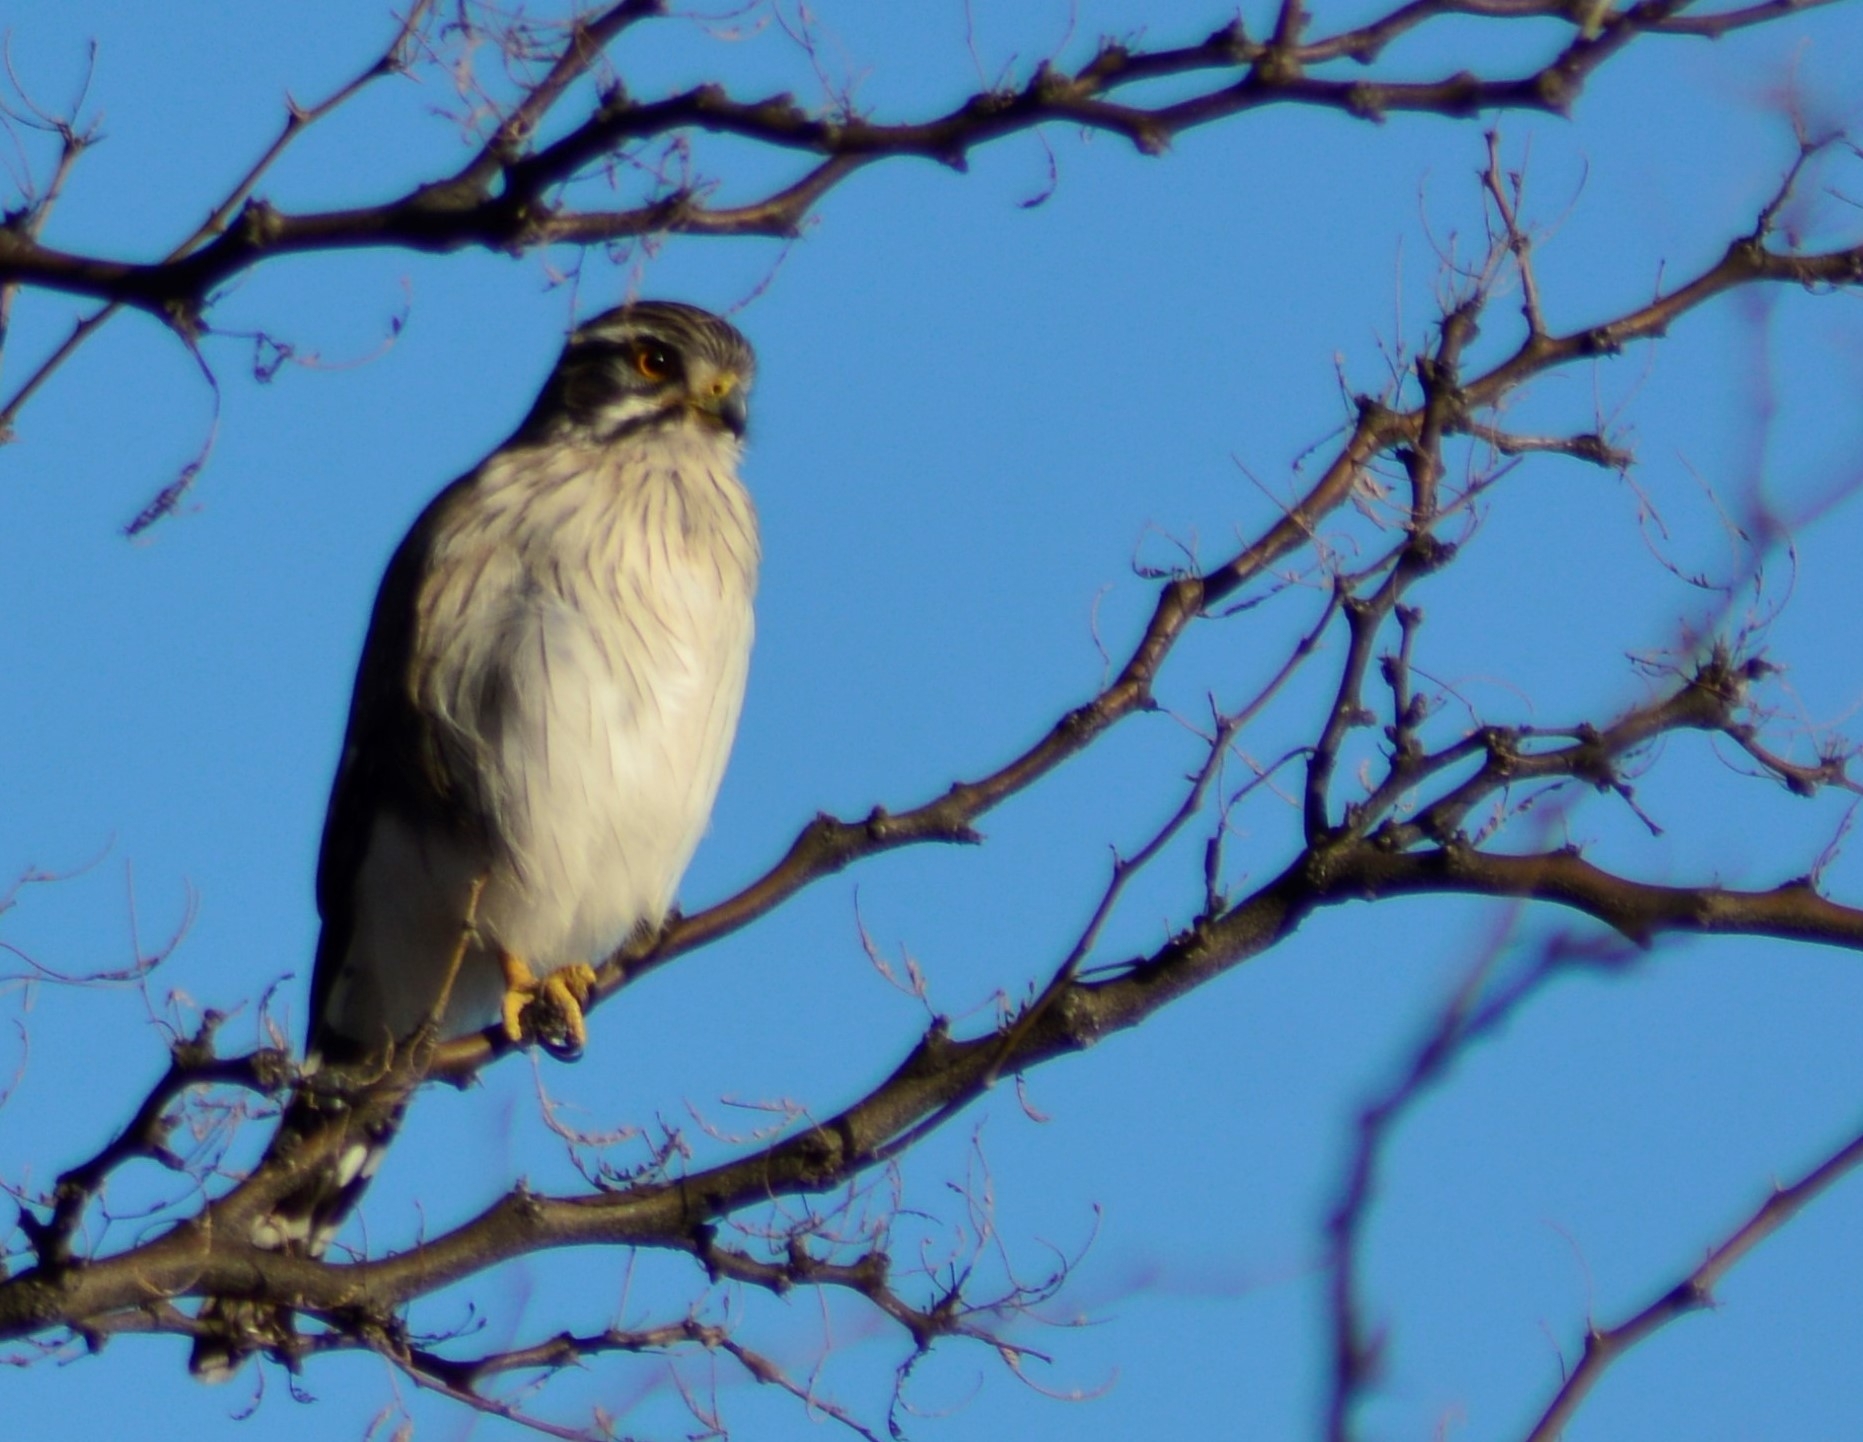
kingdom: Animalia
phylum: Chordata
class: Aves
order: Falconiformes
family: Falconidae
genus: Spiziapteryx
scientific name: Spiziapteryx circumcincta
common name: Spot-winged falconet
